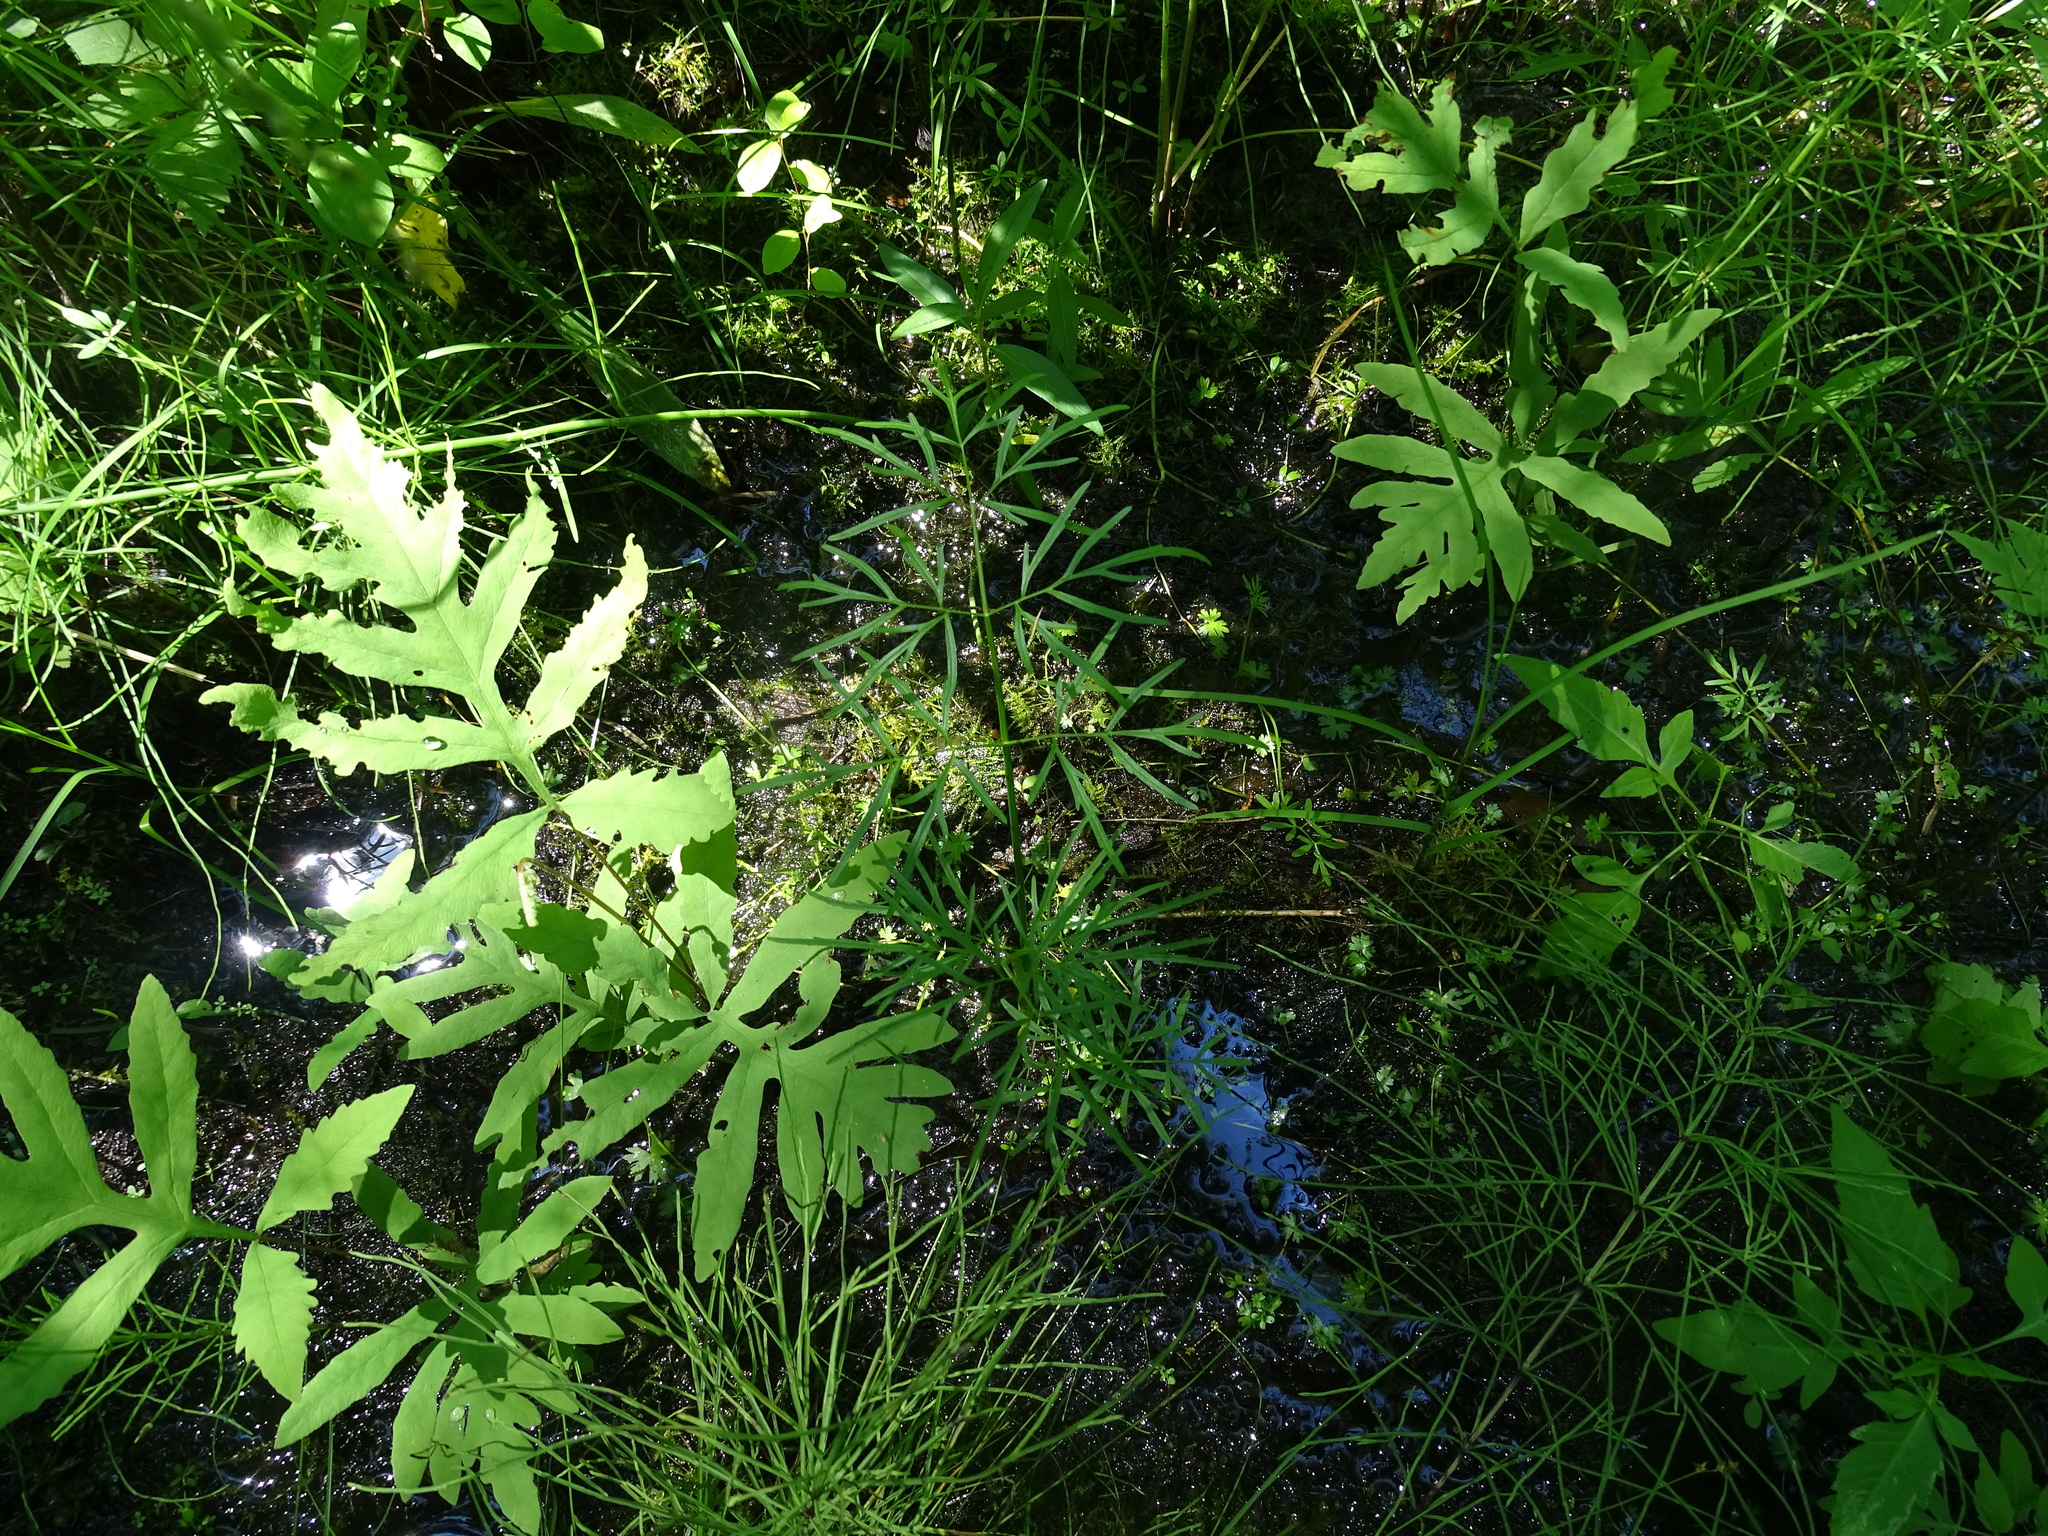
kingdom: Plantae
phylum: Tracheophyta
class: Magnoliopsida
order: Apiales
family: Apiaceae
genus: Cicuta
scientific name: Cicuta bulbifera
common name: Bulb-bearing water-hemlock
